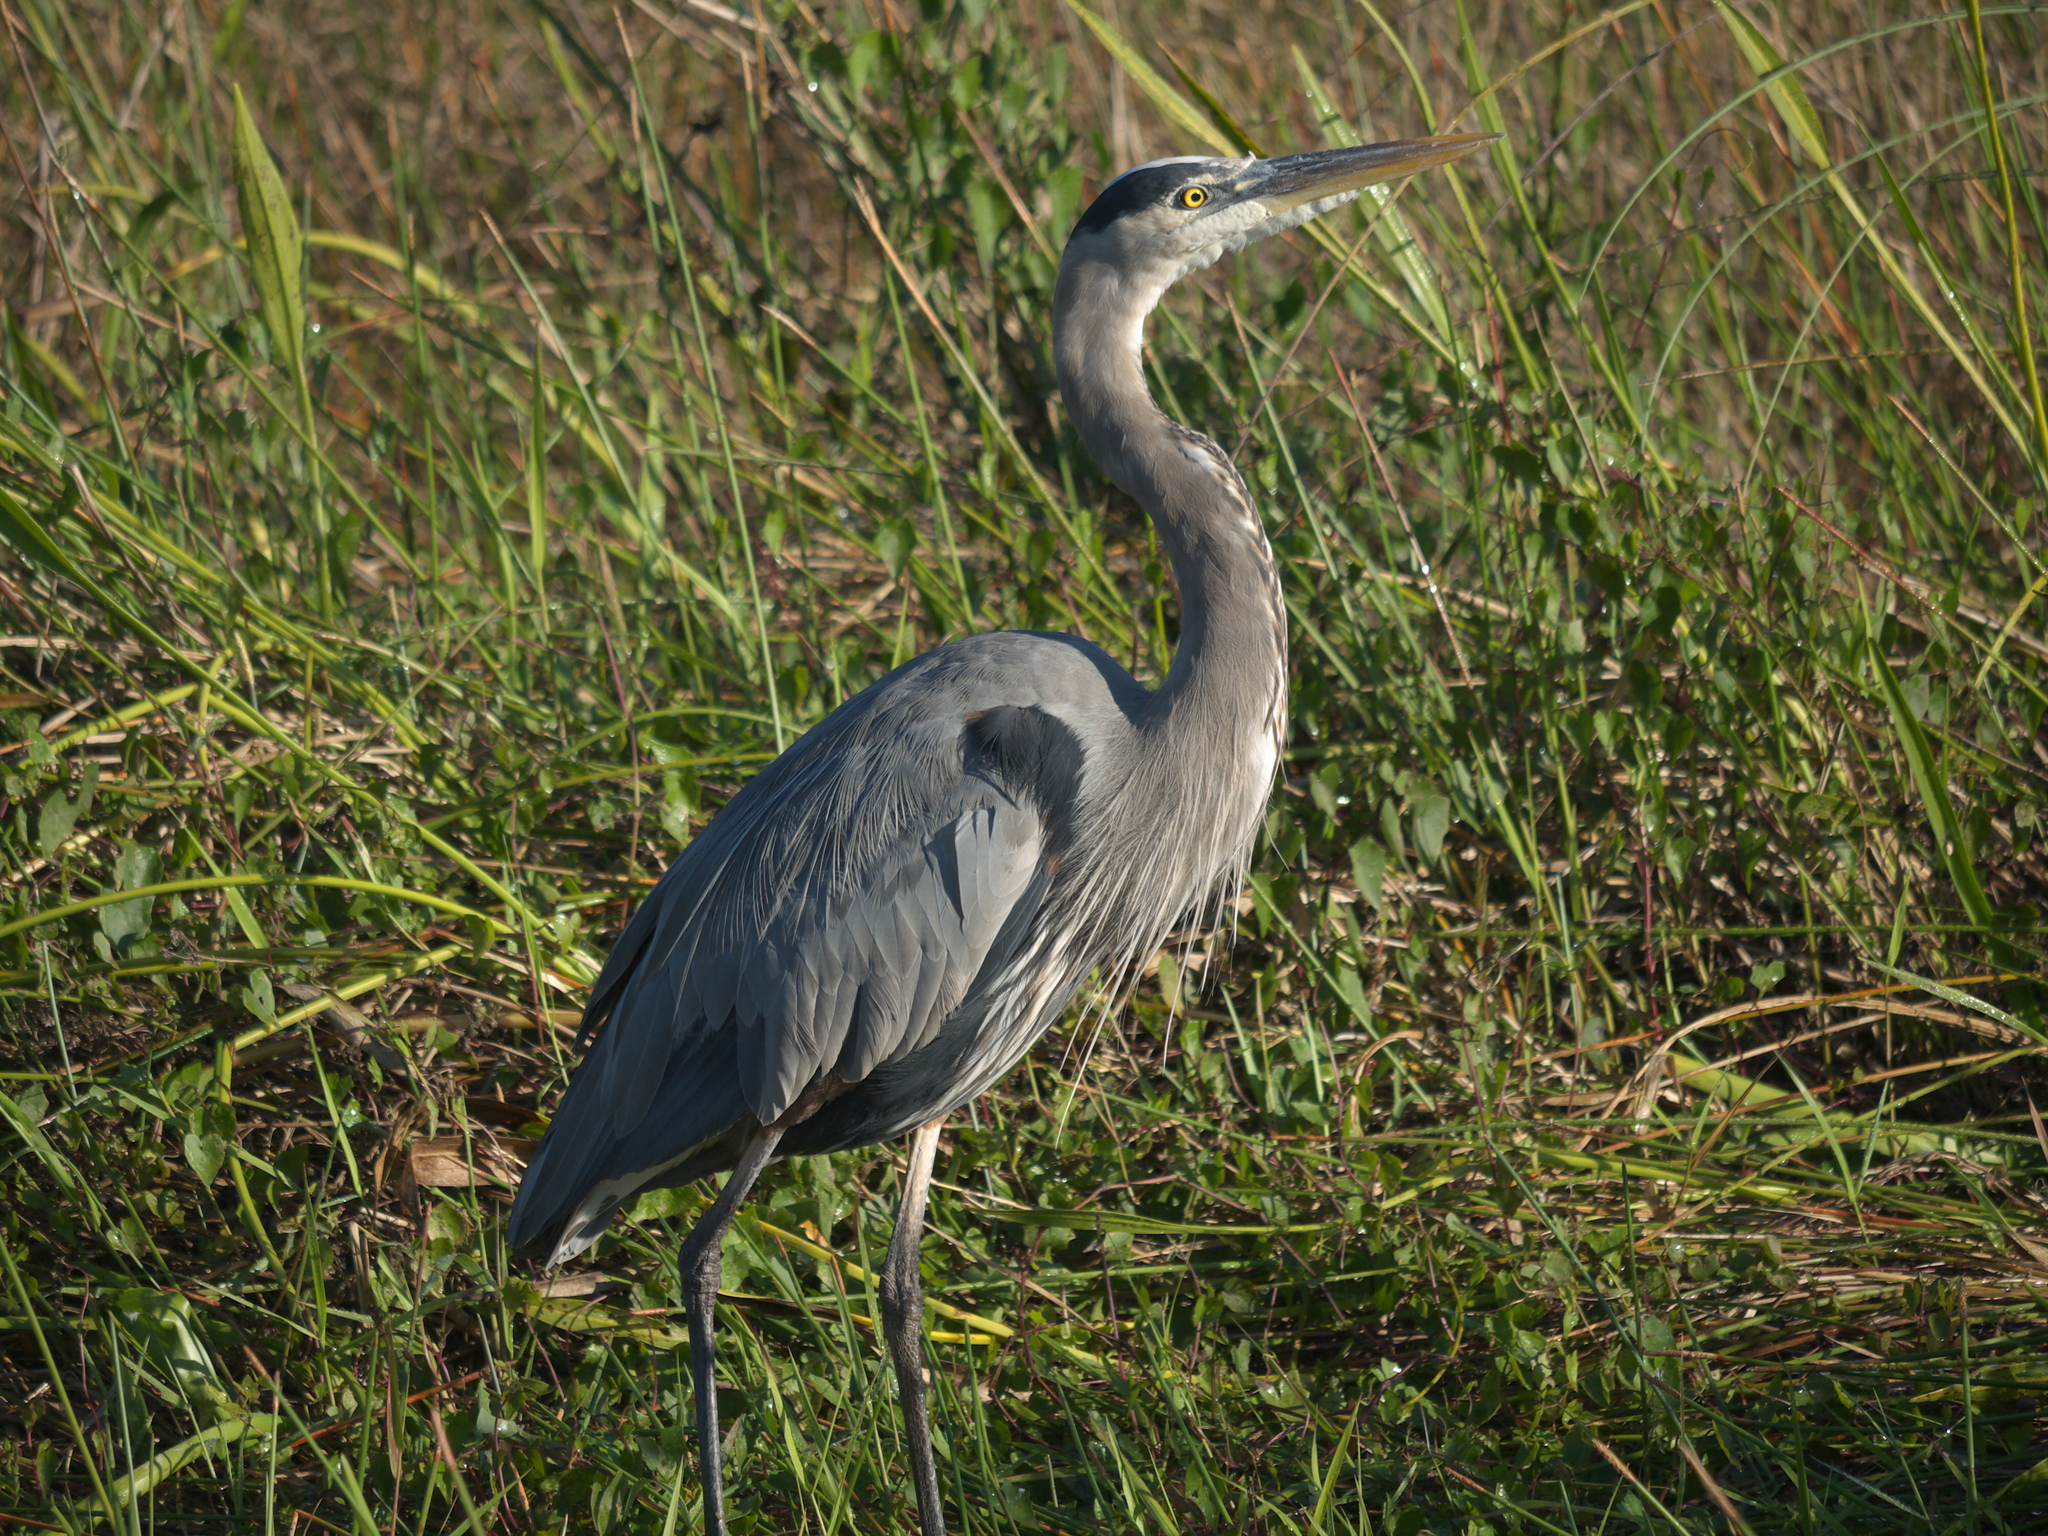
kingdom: Animalia
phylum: Chordata
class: Aves
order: Pelecaniformes
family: Ardeidae
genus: Ardea
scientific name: Ardea herodias
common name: Great blue heron
